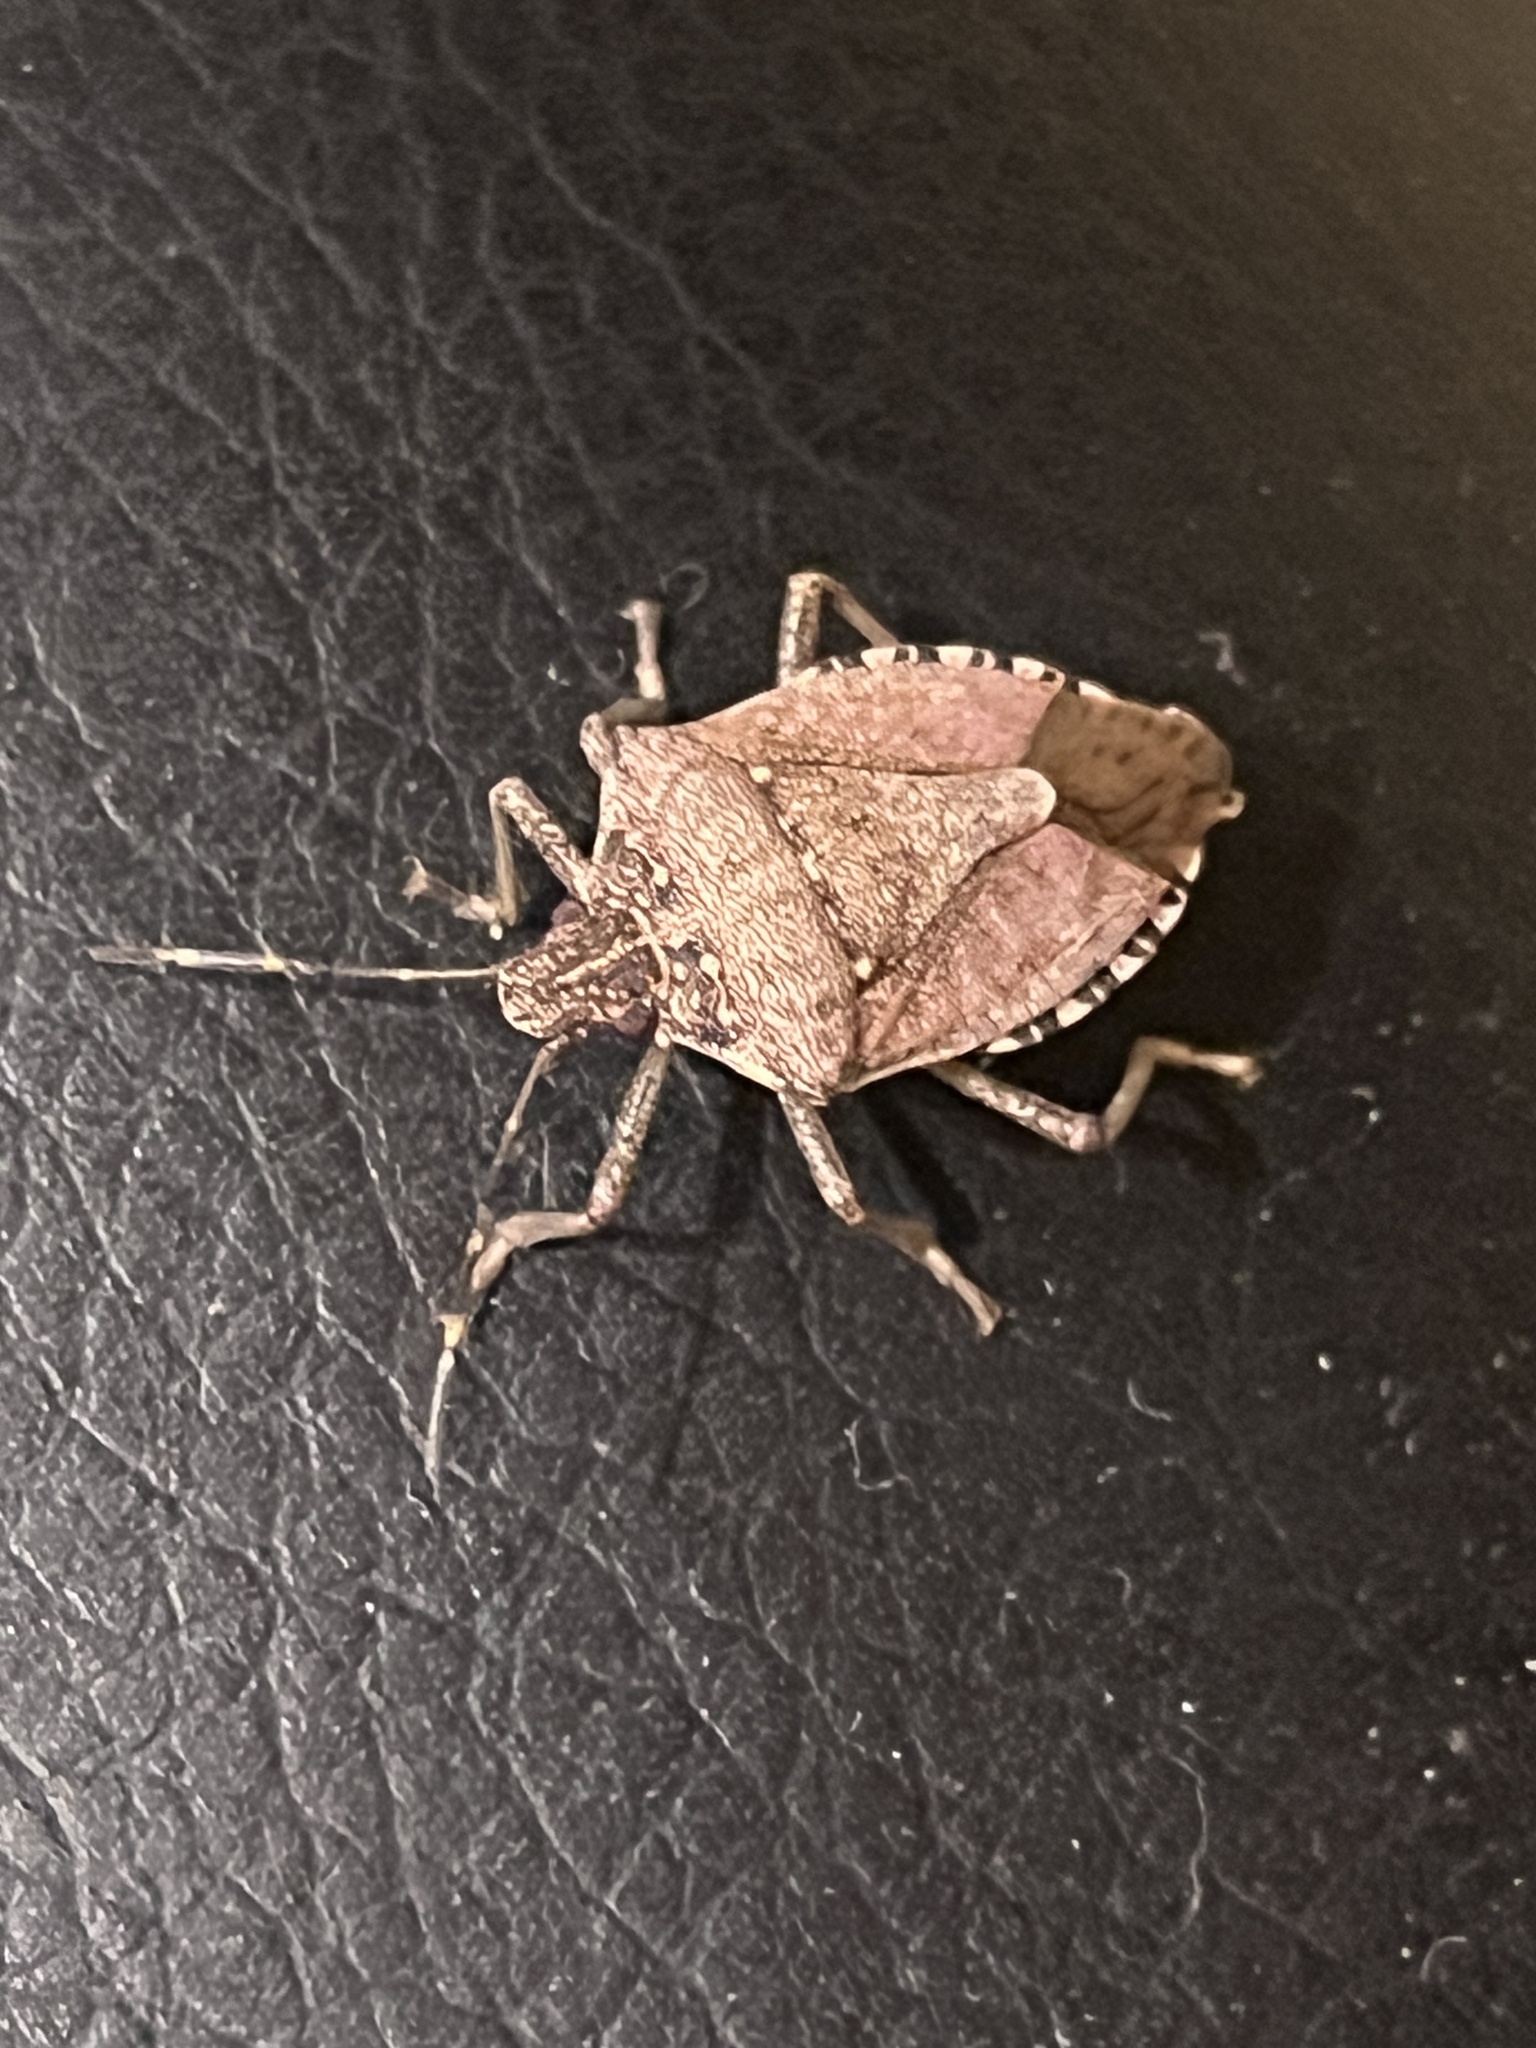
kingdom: Animalia
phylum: Arthropoda
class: Insecta
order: Hemiptera
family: Pentatomidae
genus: Halyomorpha
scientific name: Halyomorpha halys
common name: Brown marmorated stink bug
